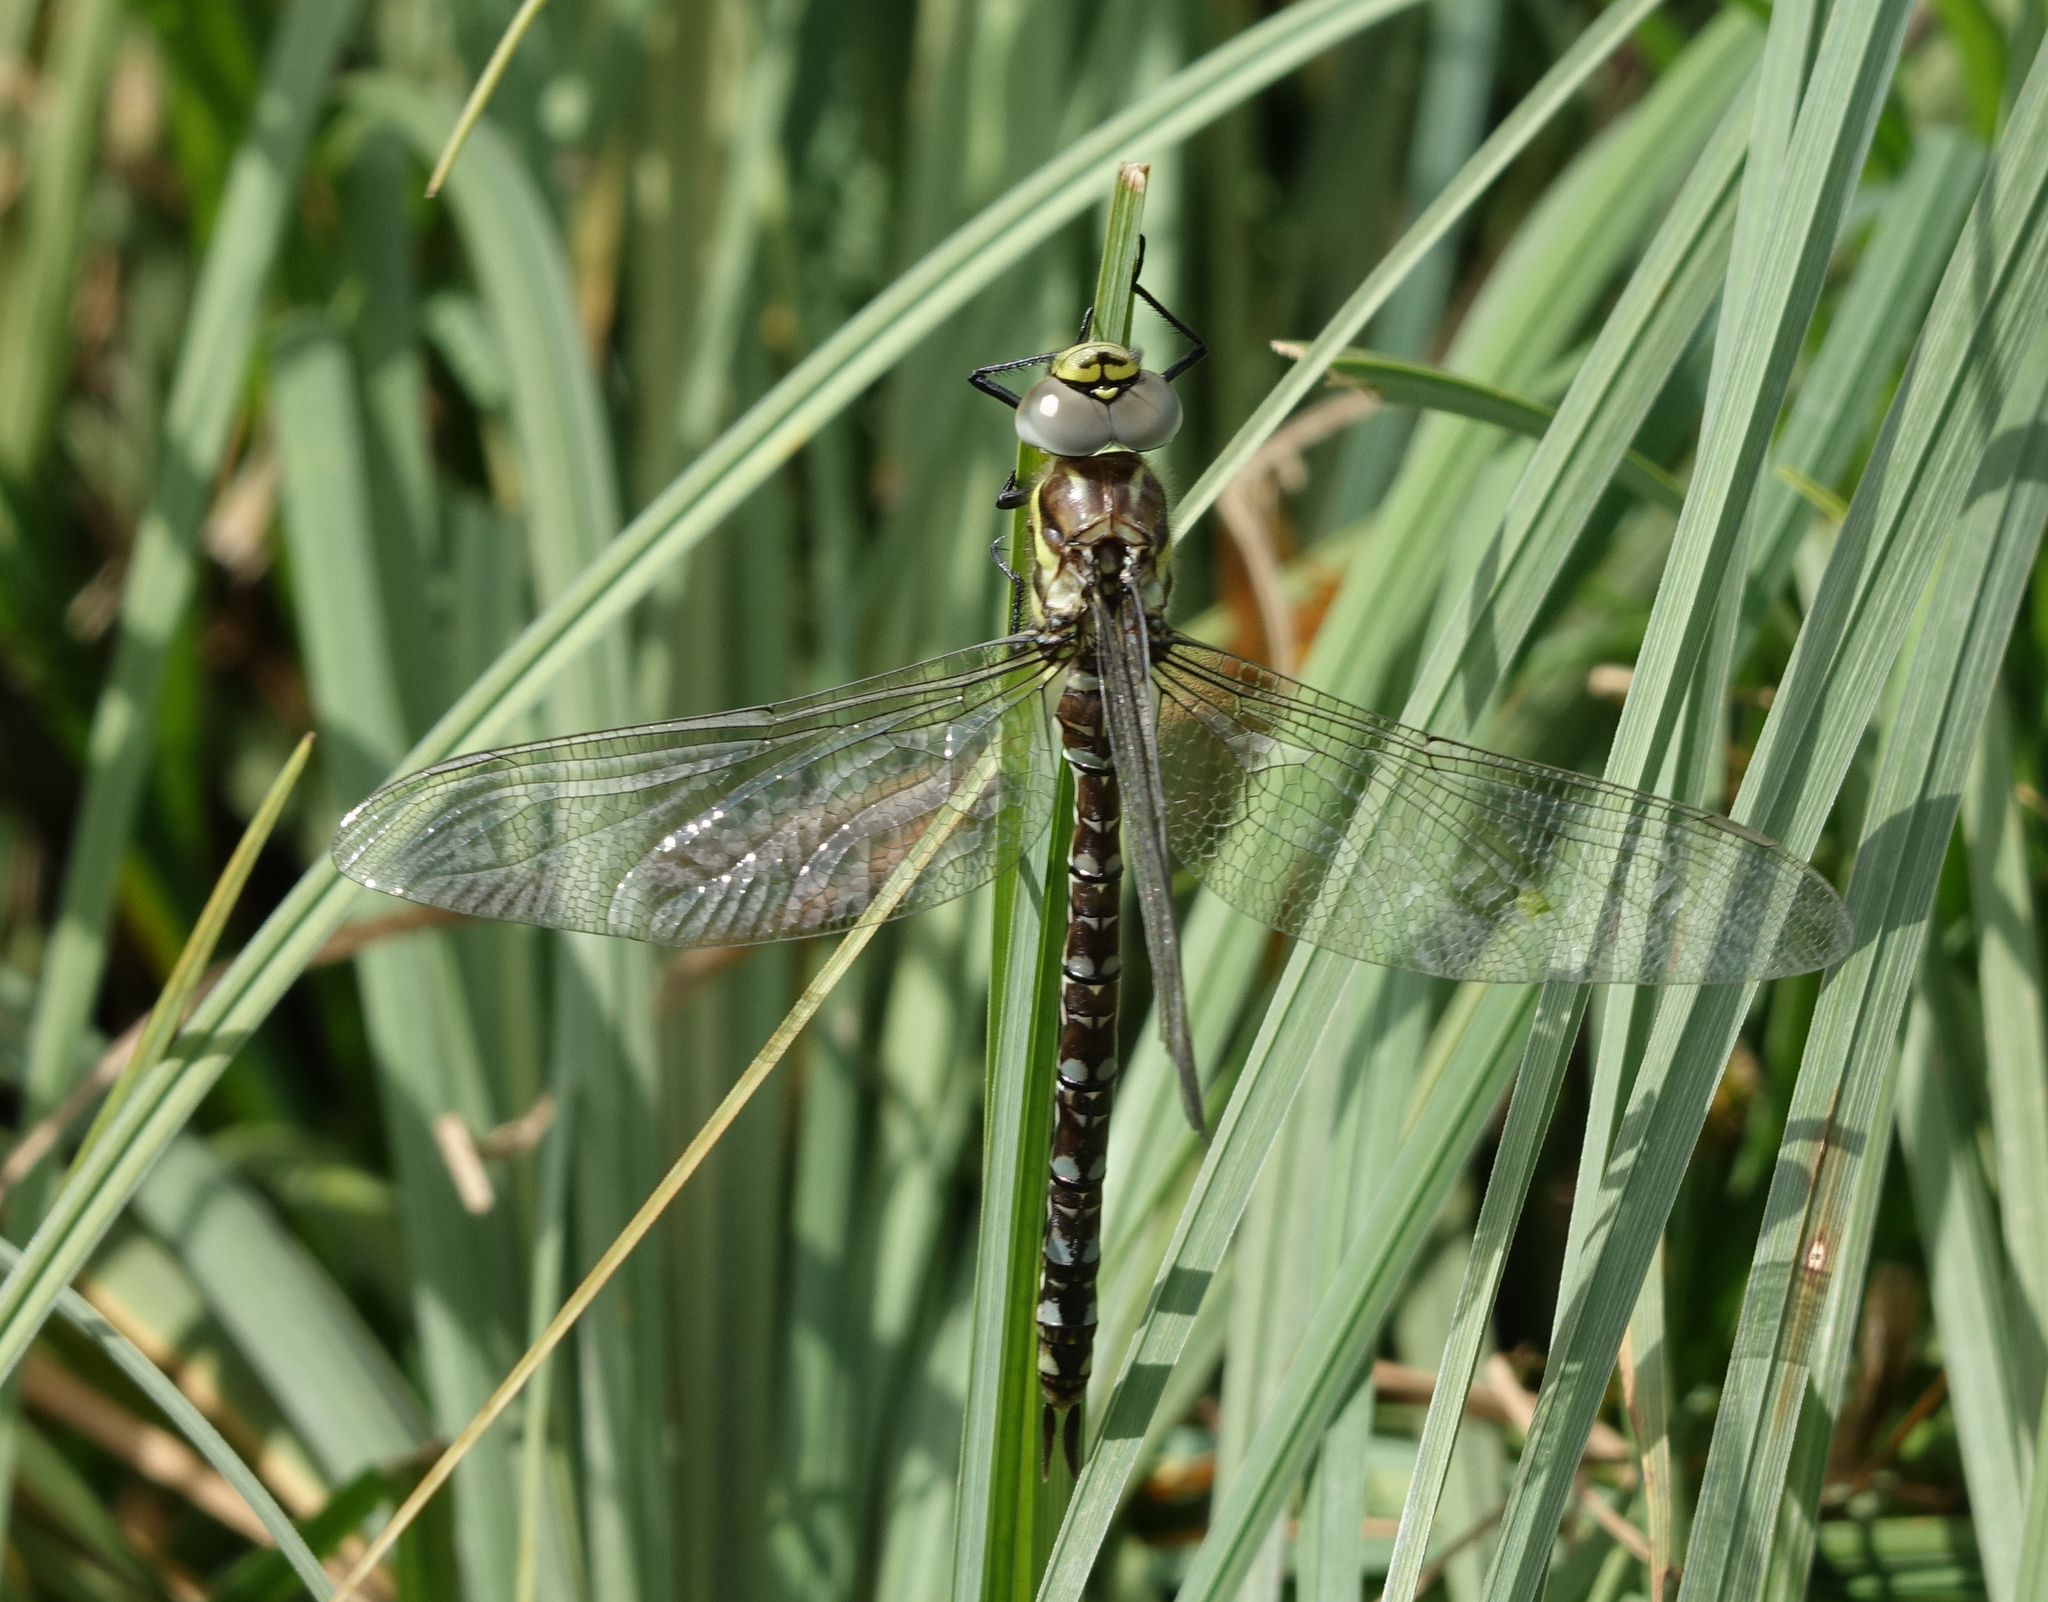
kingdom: Animalia
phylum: Arthropoda
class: Insecta
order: Odonata
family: Aeshnidae
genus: Aeshna
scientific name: Aeshna juncea
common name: Moorland hawker
